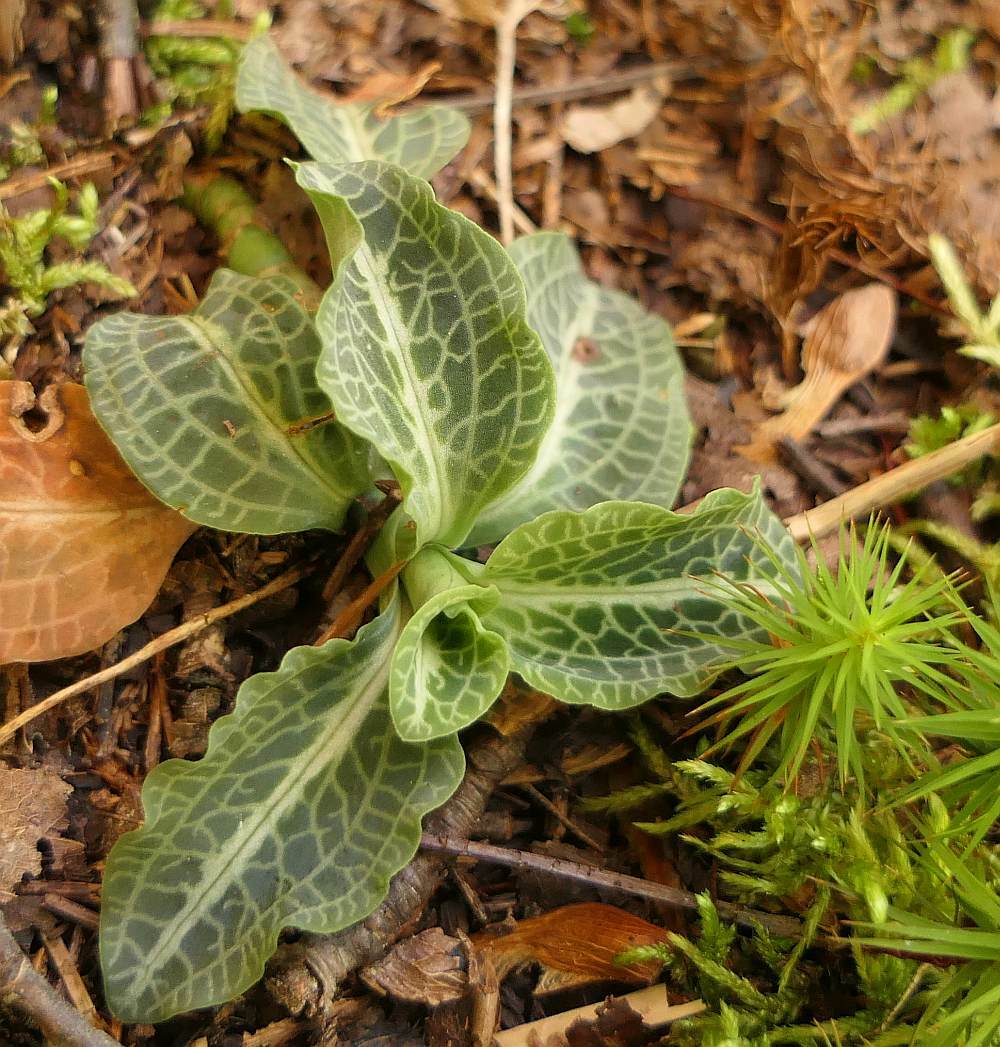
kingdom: Plantae
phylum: Tracheophyta
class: Liliopsida
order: Asparagales
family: Orchidaceae
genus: Goodyera
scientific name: Goodyera pubescens
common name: Downy rattlesnake-plantain
